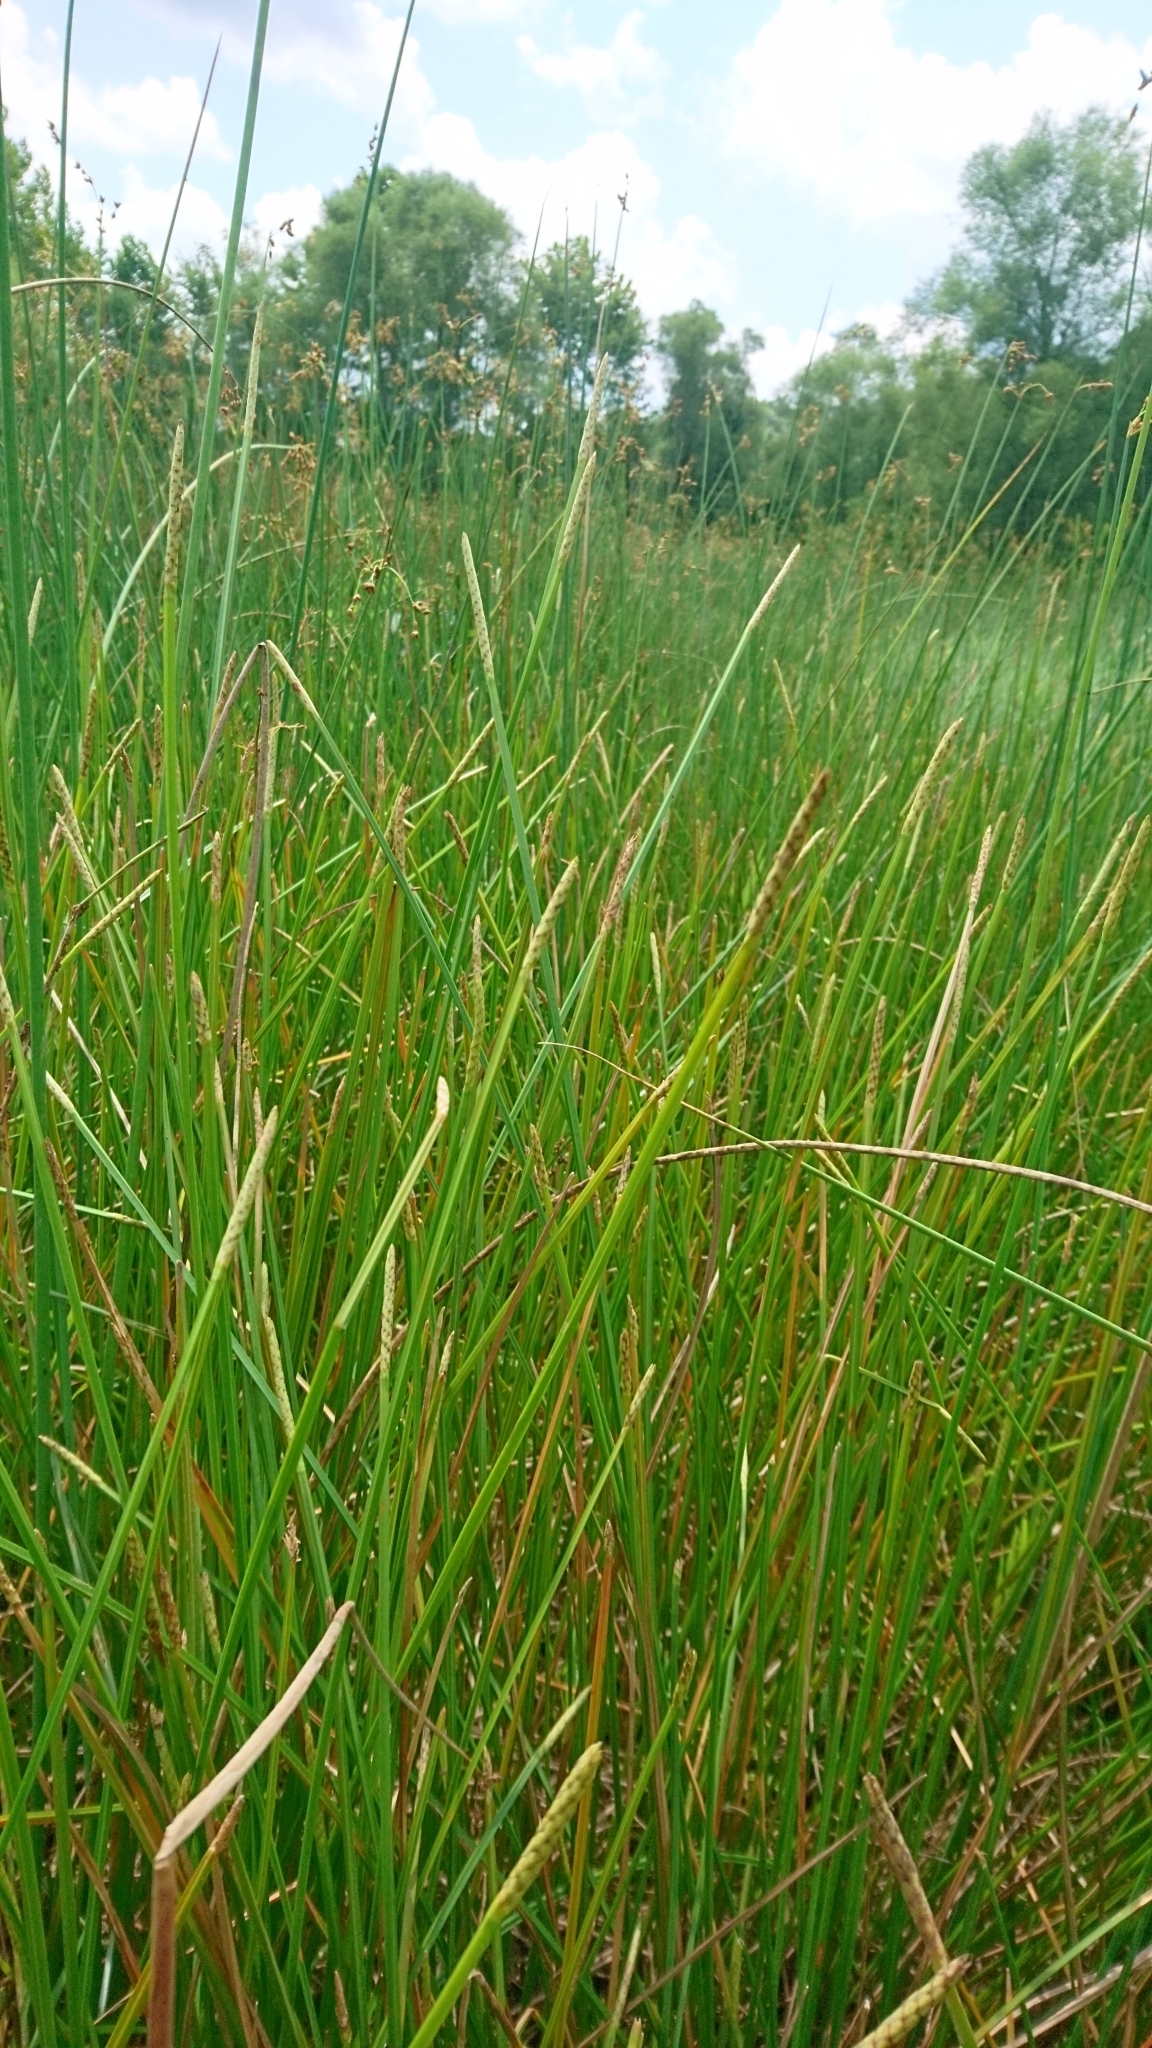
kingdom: Plantae
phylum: Tracheophyta
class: Liliopsida
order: Poales
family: Cyperaceae
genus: Eleocharis
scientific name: Eleocharis quadrangulata
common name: Square-stem spike-rush
